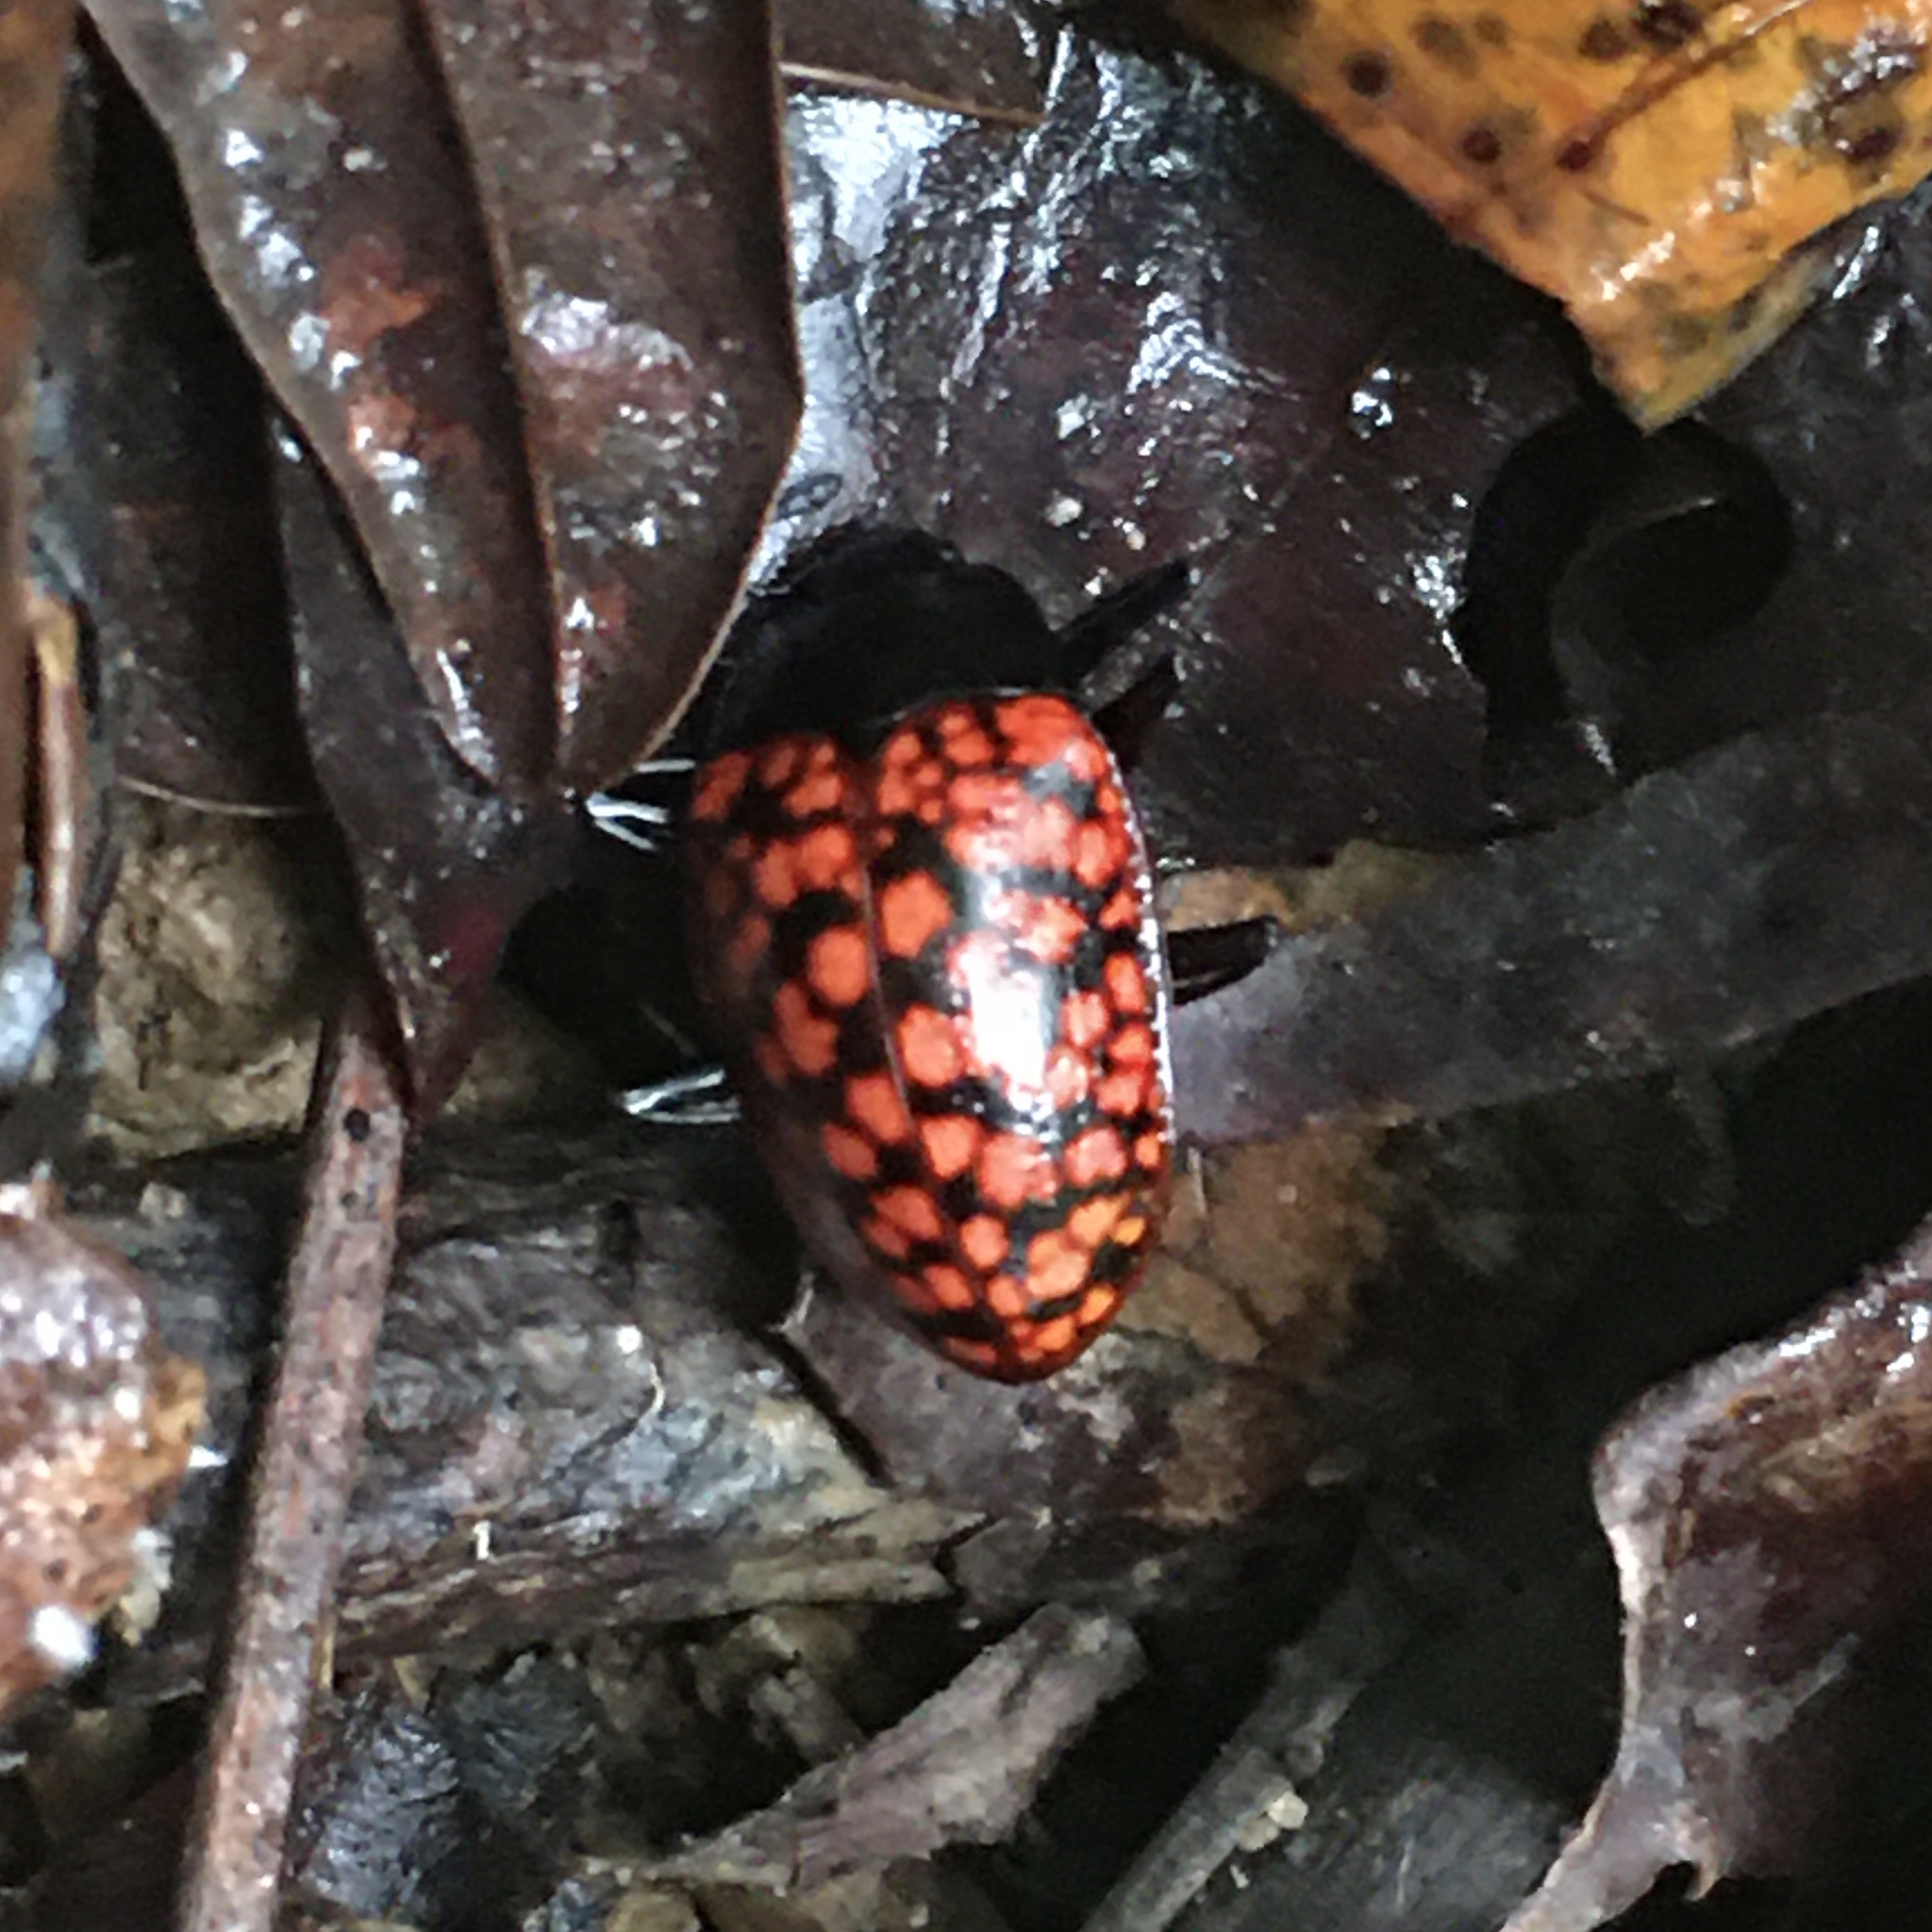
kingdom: Animalia
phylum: Arthropoda
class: Insecta
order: Coleoptera
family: Erotylidae
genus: Erotylina
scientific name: Erotylina jaspidea
